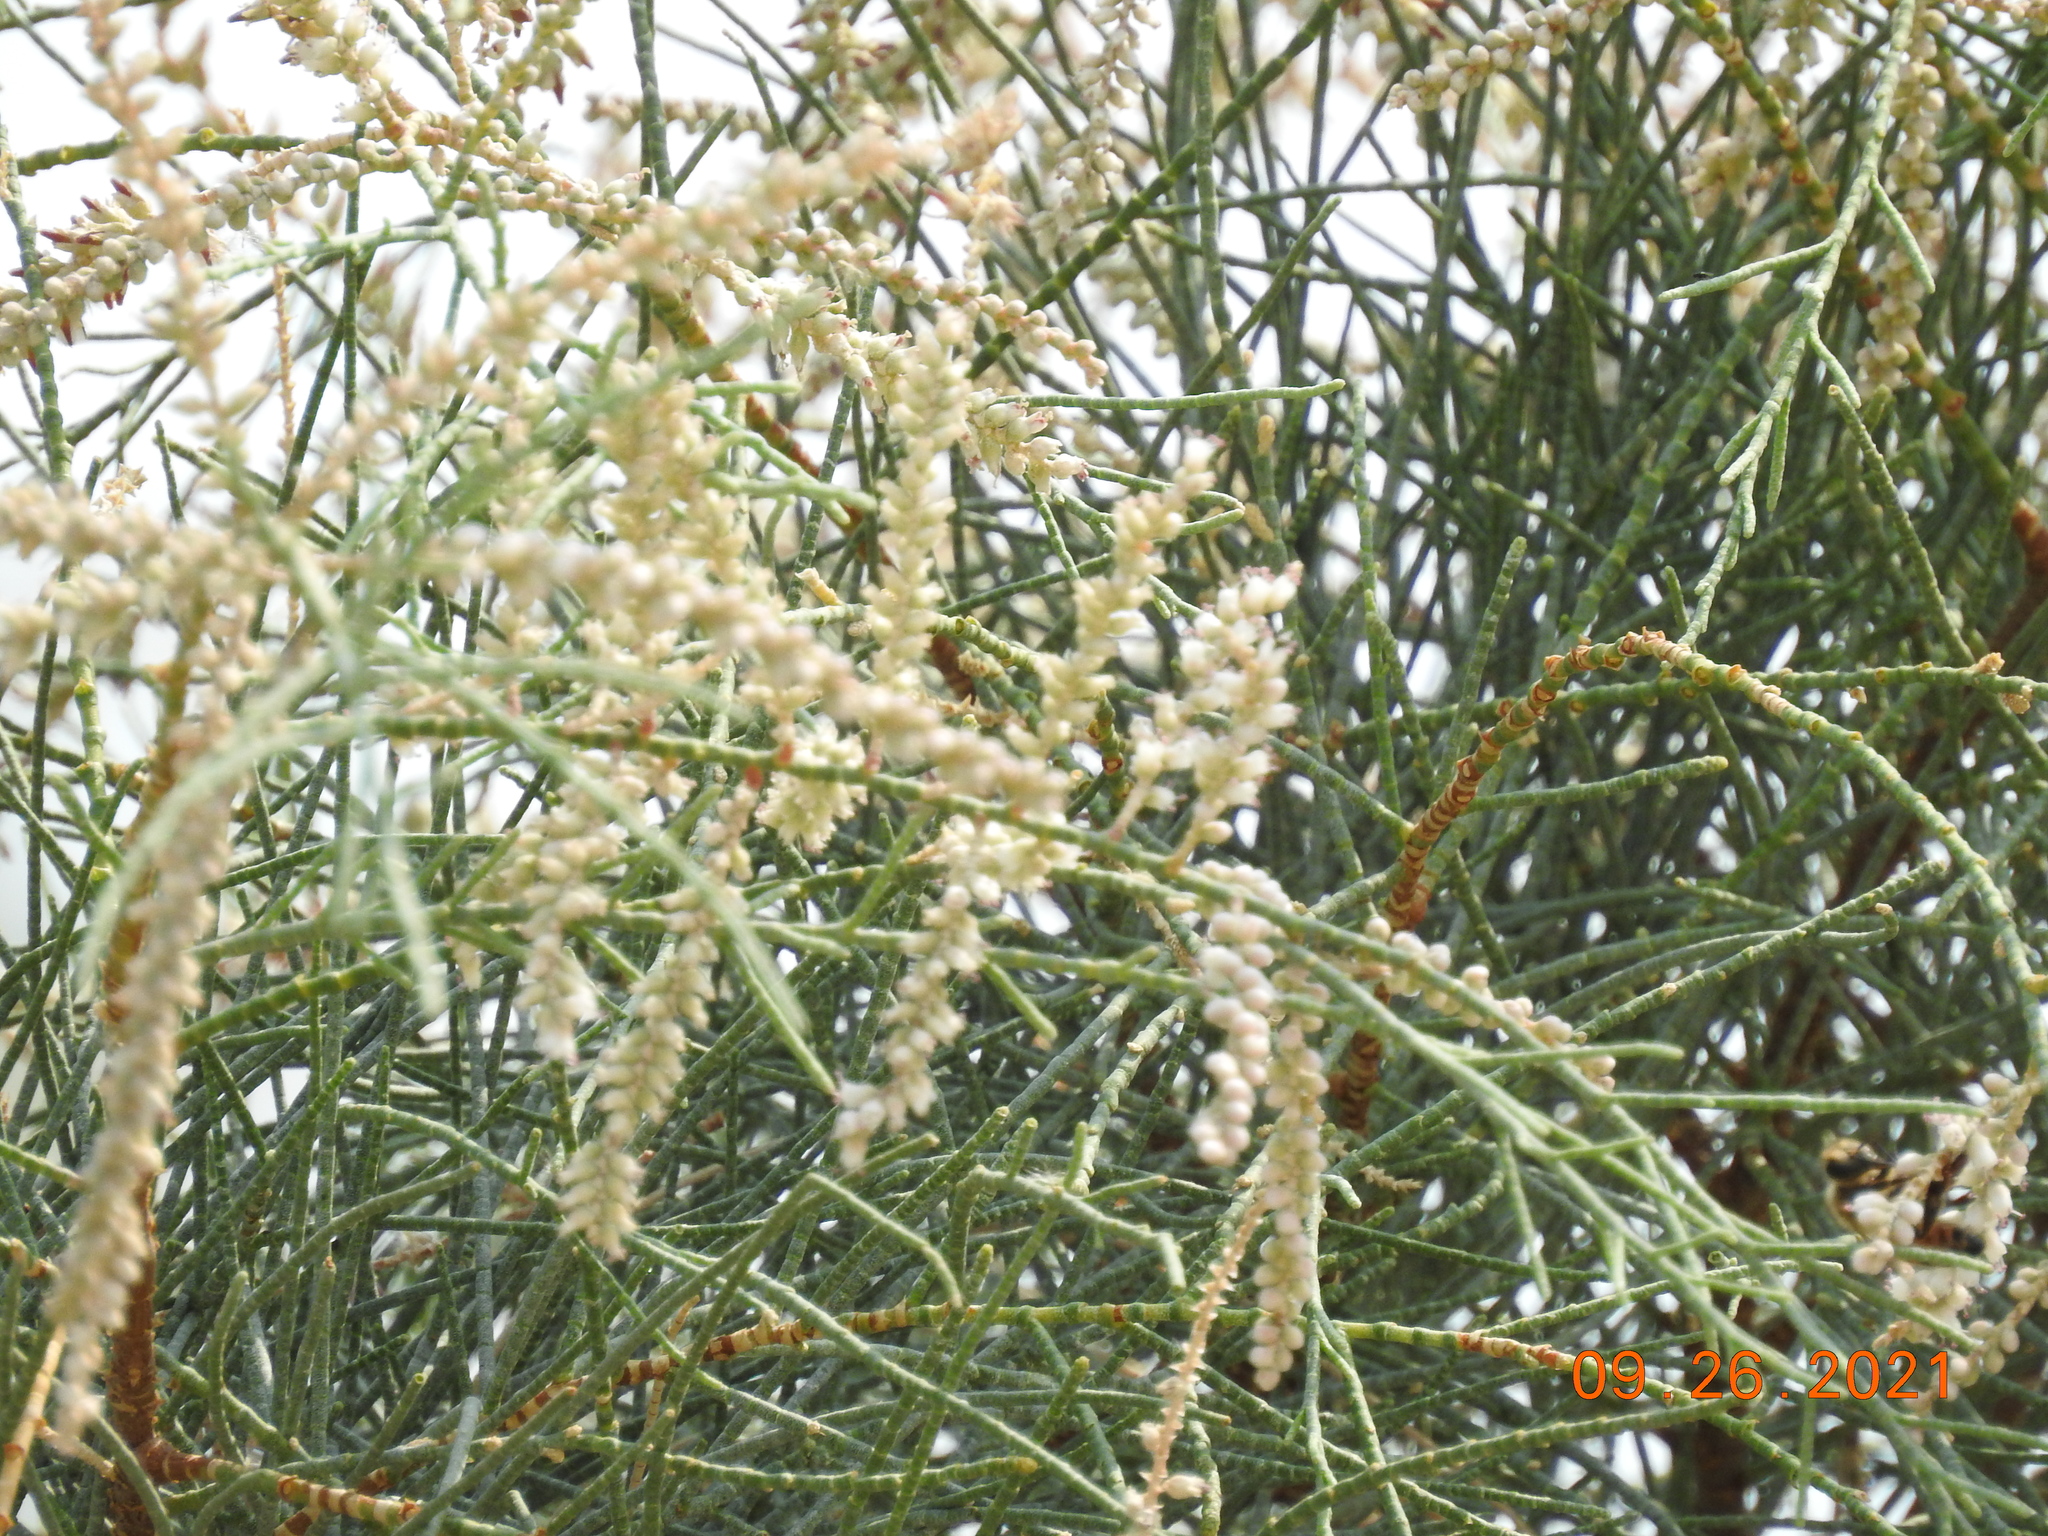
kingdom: Plantae
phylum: Tracheophyta
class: Magnoliopsida
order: Caryophyllales
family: Tamaricaceae
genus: Tamarix
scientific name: Tamarix aphylla
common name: Athel tamarisk
